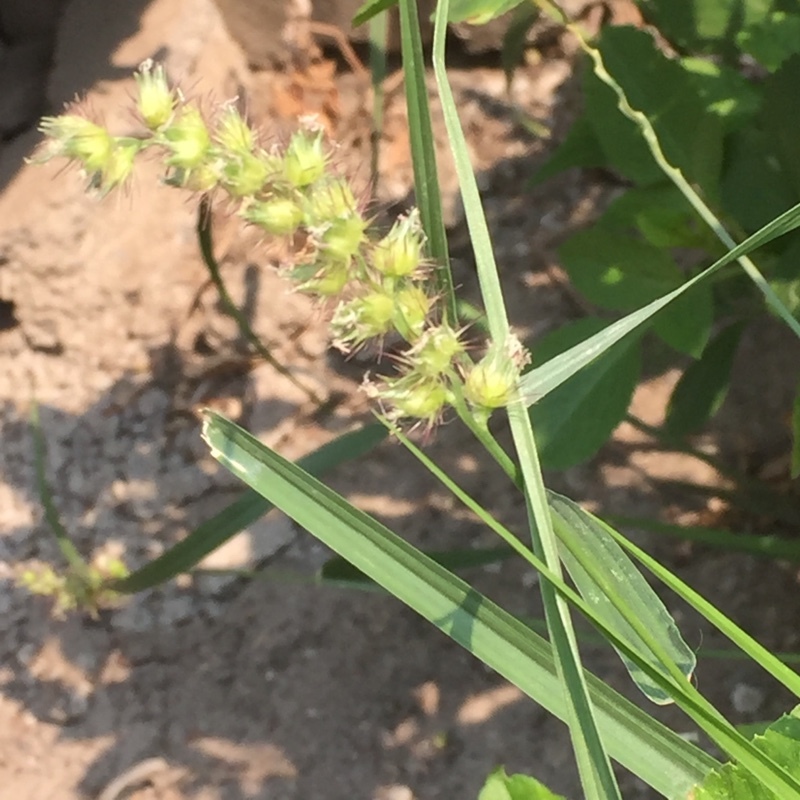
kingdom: Plantae
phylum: Tracheophyta
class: Liliopsida
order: Poales
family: Poaceae
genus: Cenchrus
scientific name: Cenchrus ciliaris
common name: Buffelgrass
